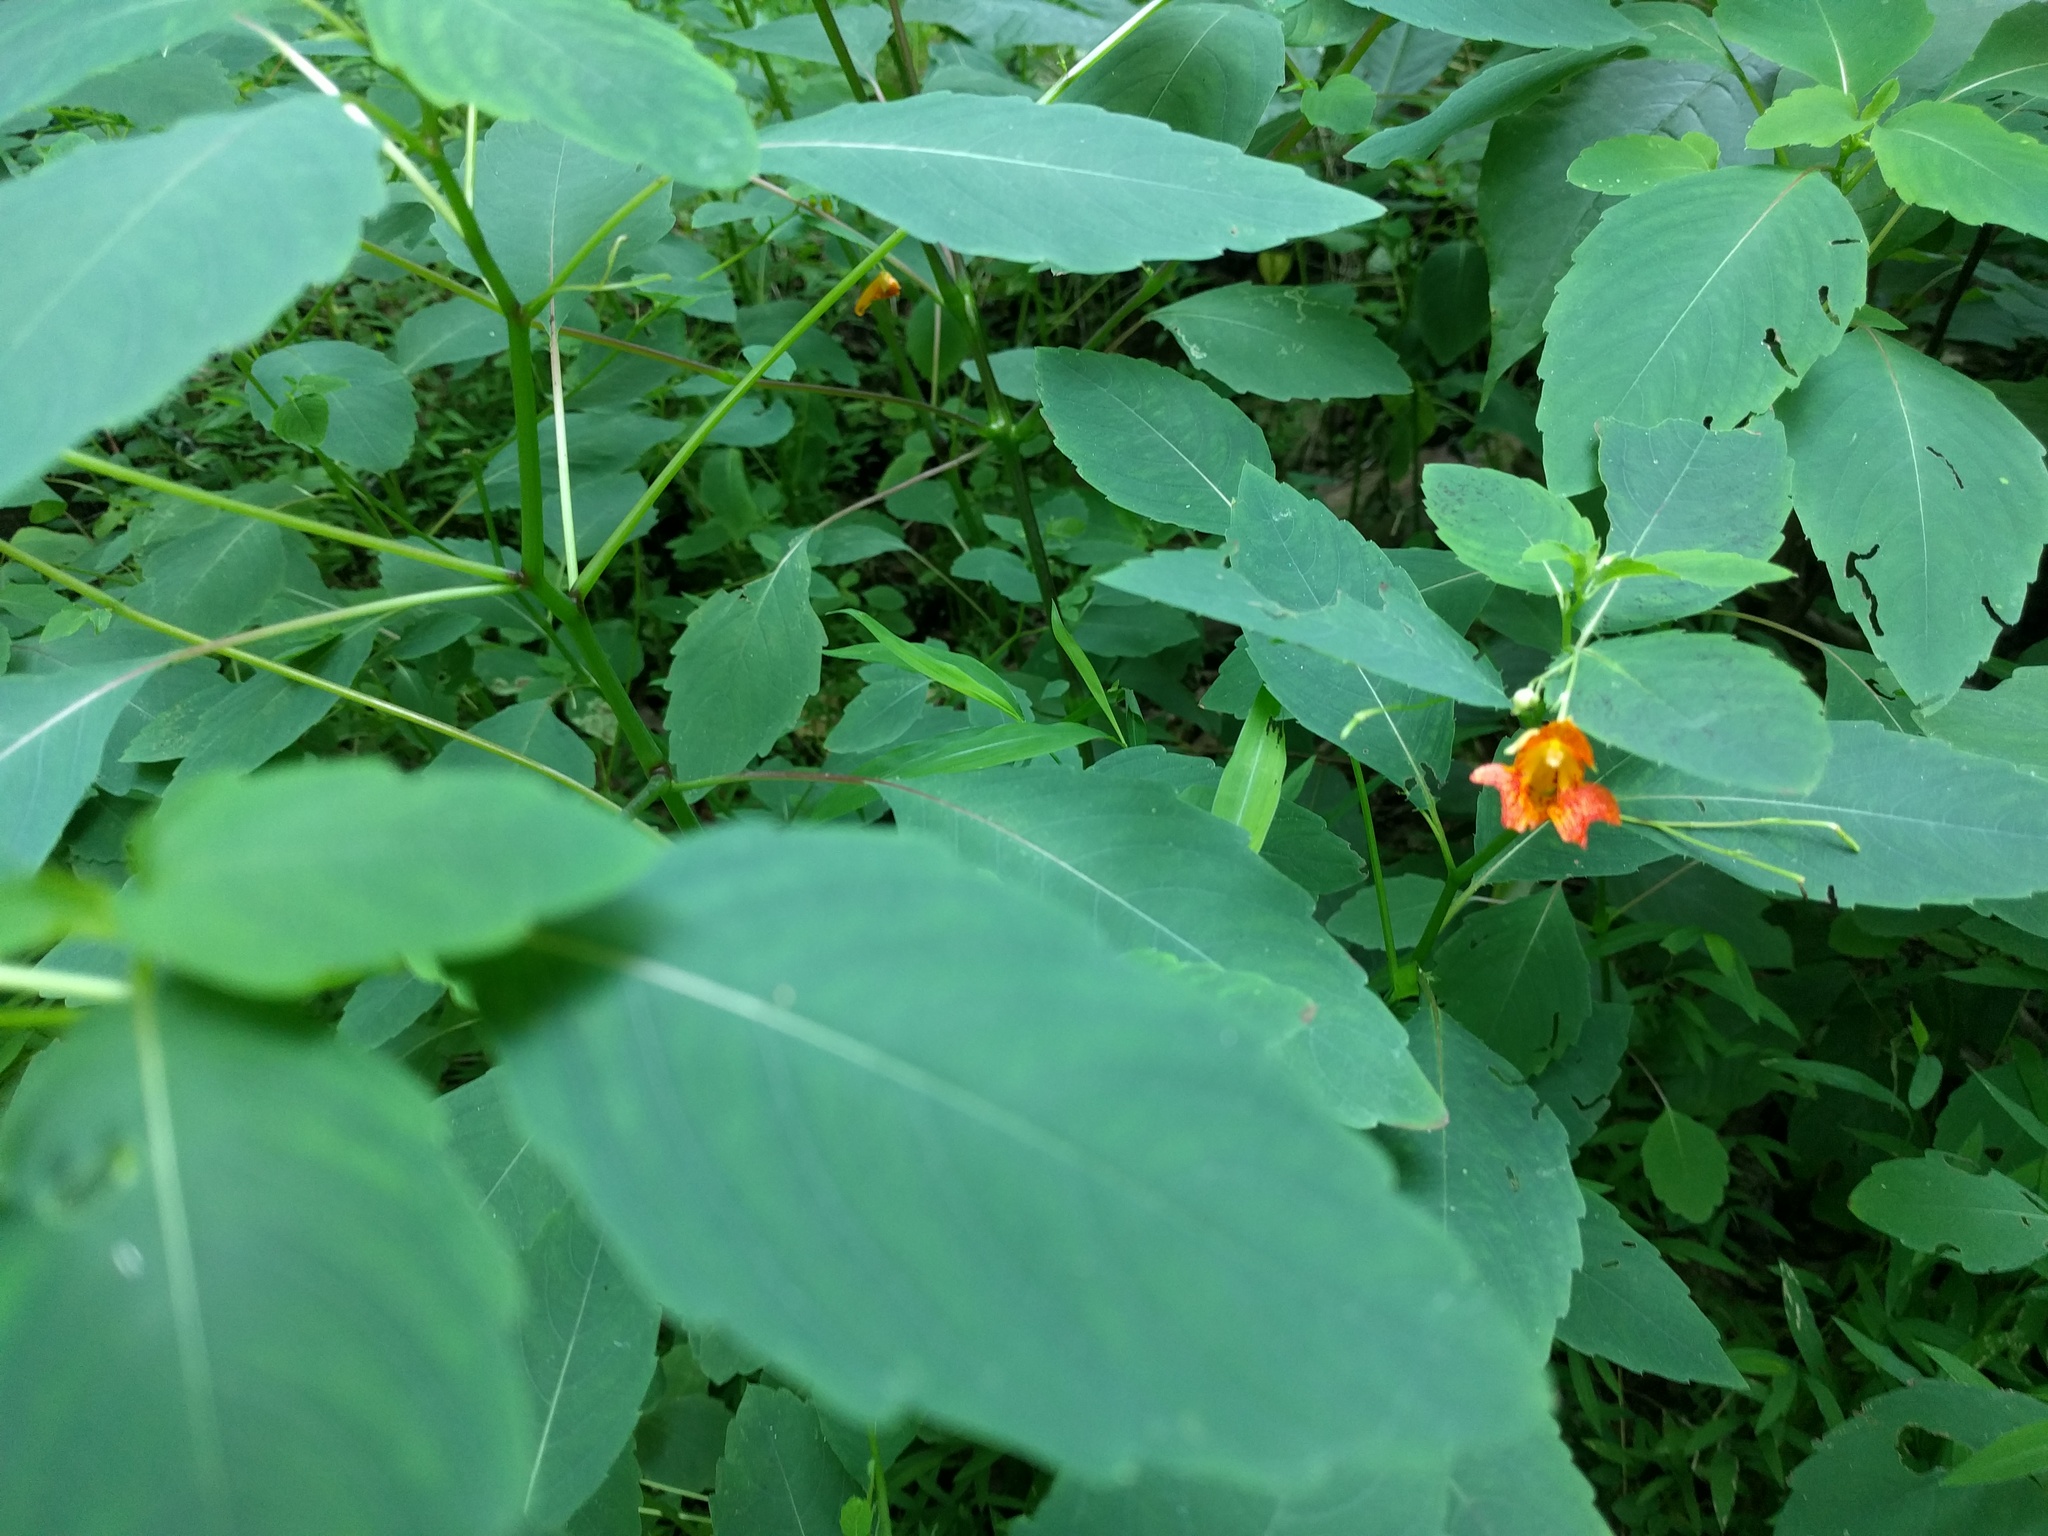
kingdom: Plantae
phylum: Tracheophyta
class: Magnoliopsida
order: Ericales
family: Balsaminaceae
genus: Impatiens
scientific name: Impatiens capensis
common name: Orange balsam
